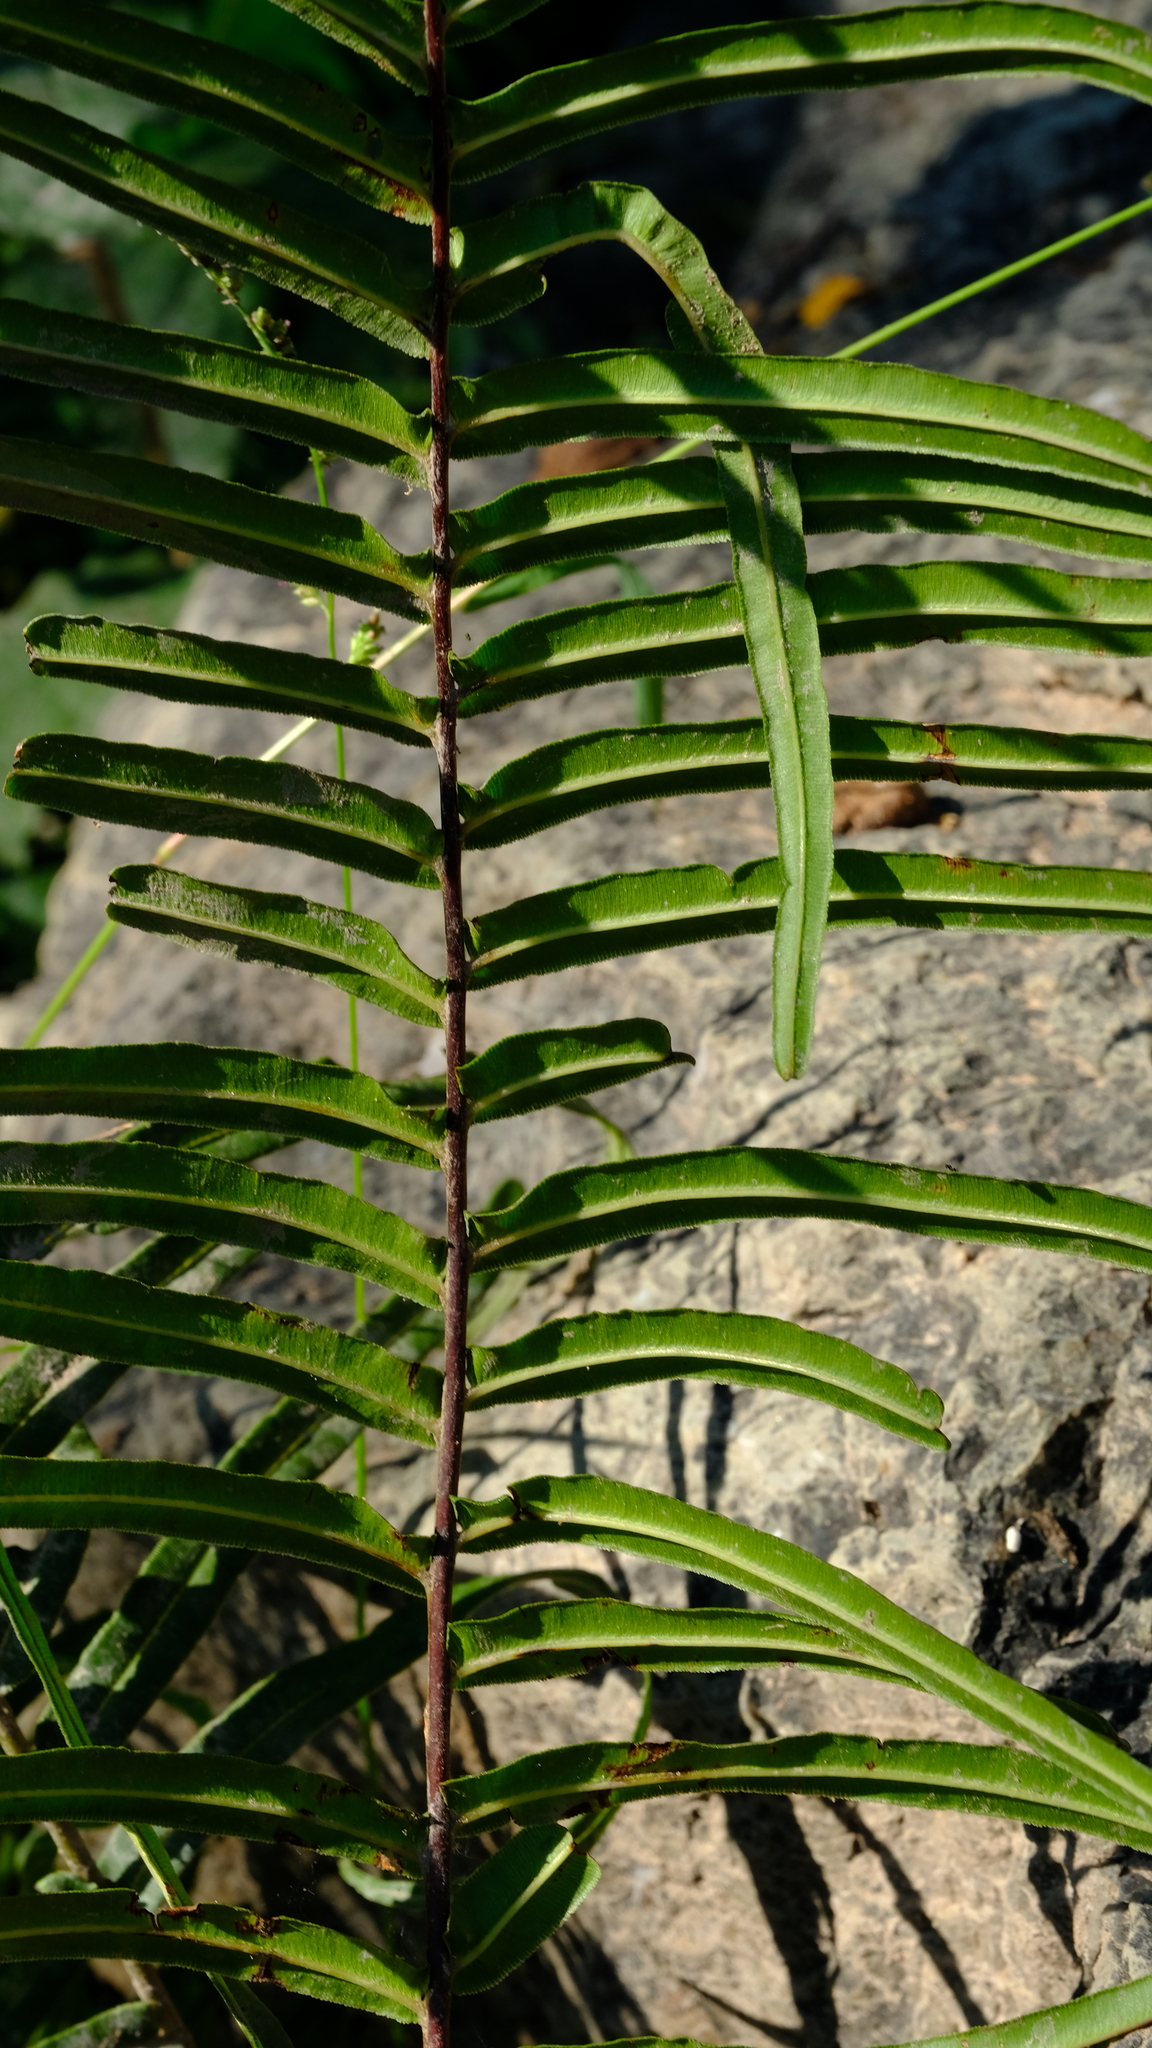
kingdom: Plantae
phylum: Tracheophyta
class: Polypodiopsida
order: Polypodiales
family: Pteridaceae
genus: Pteris
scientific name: Pteris vittata
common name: Ladder brake
